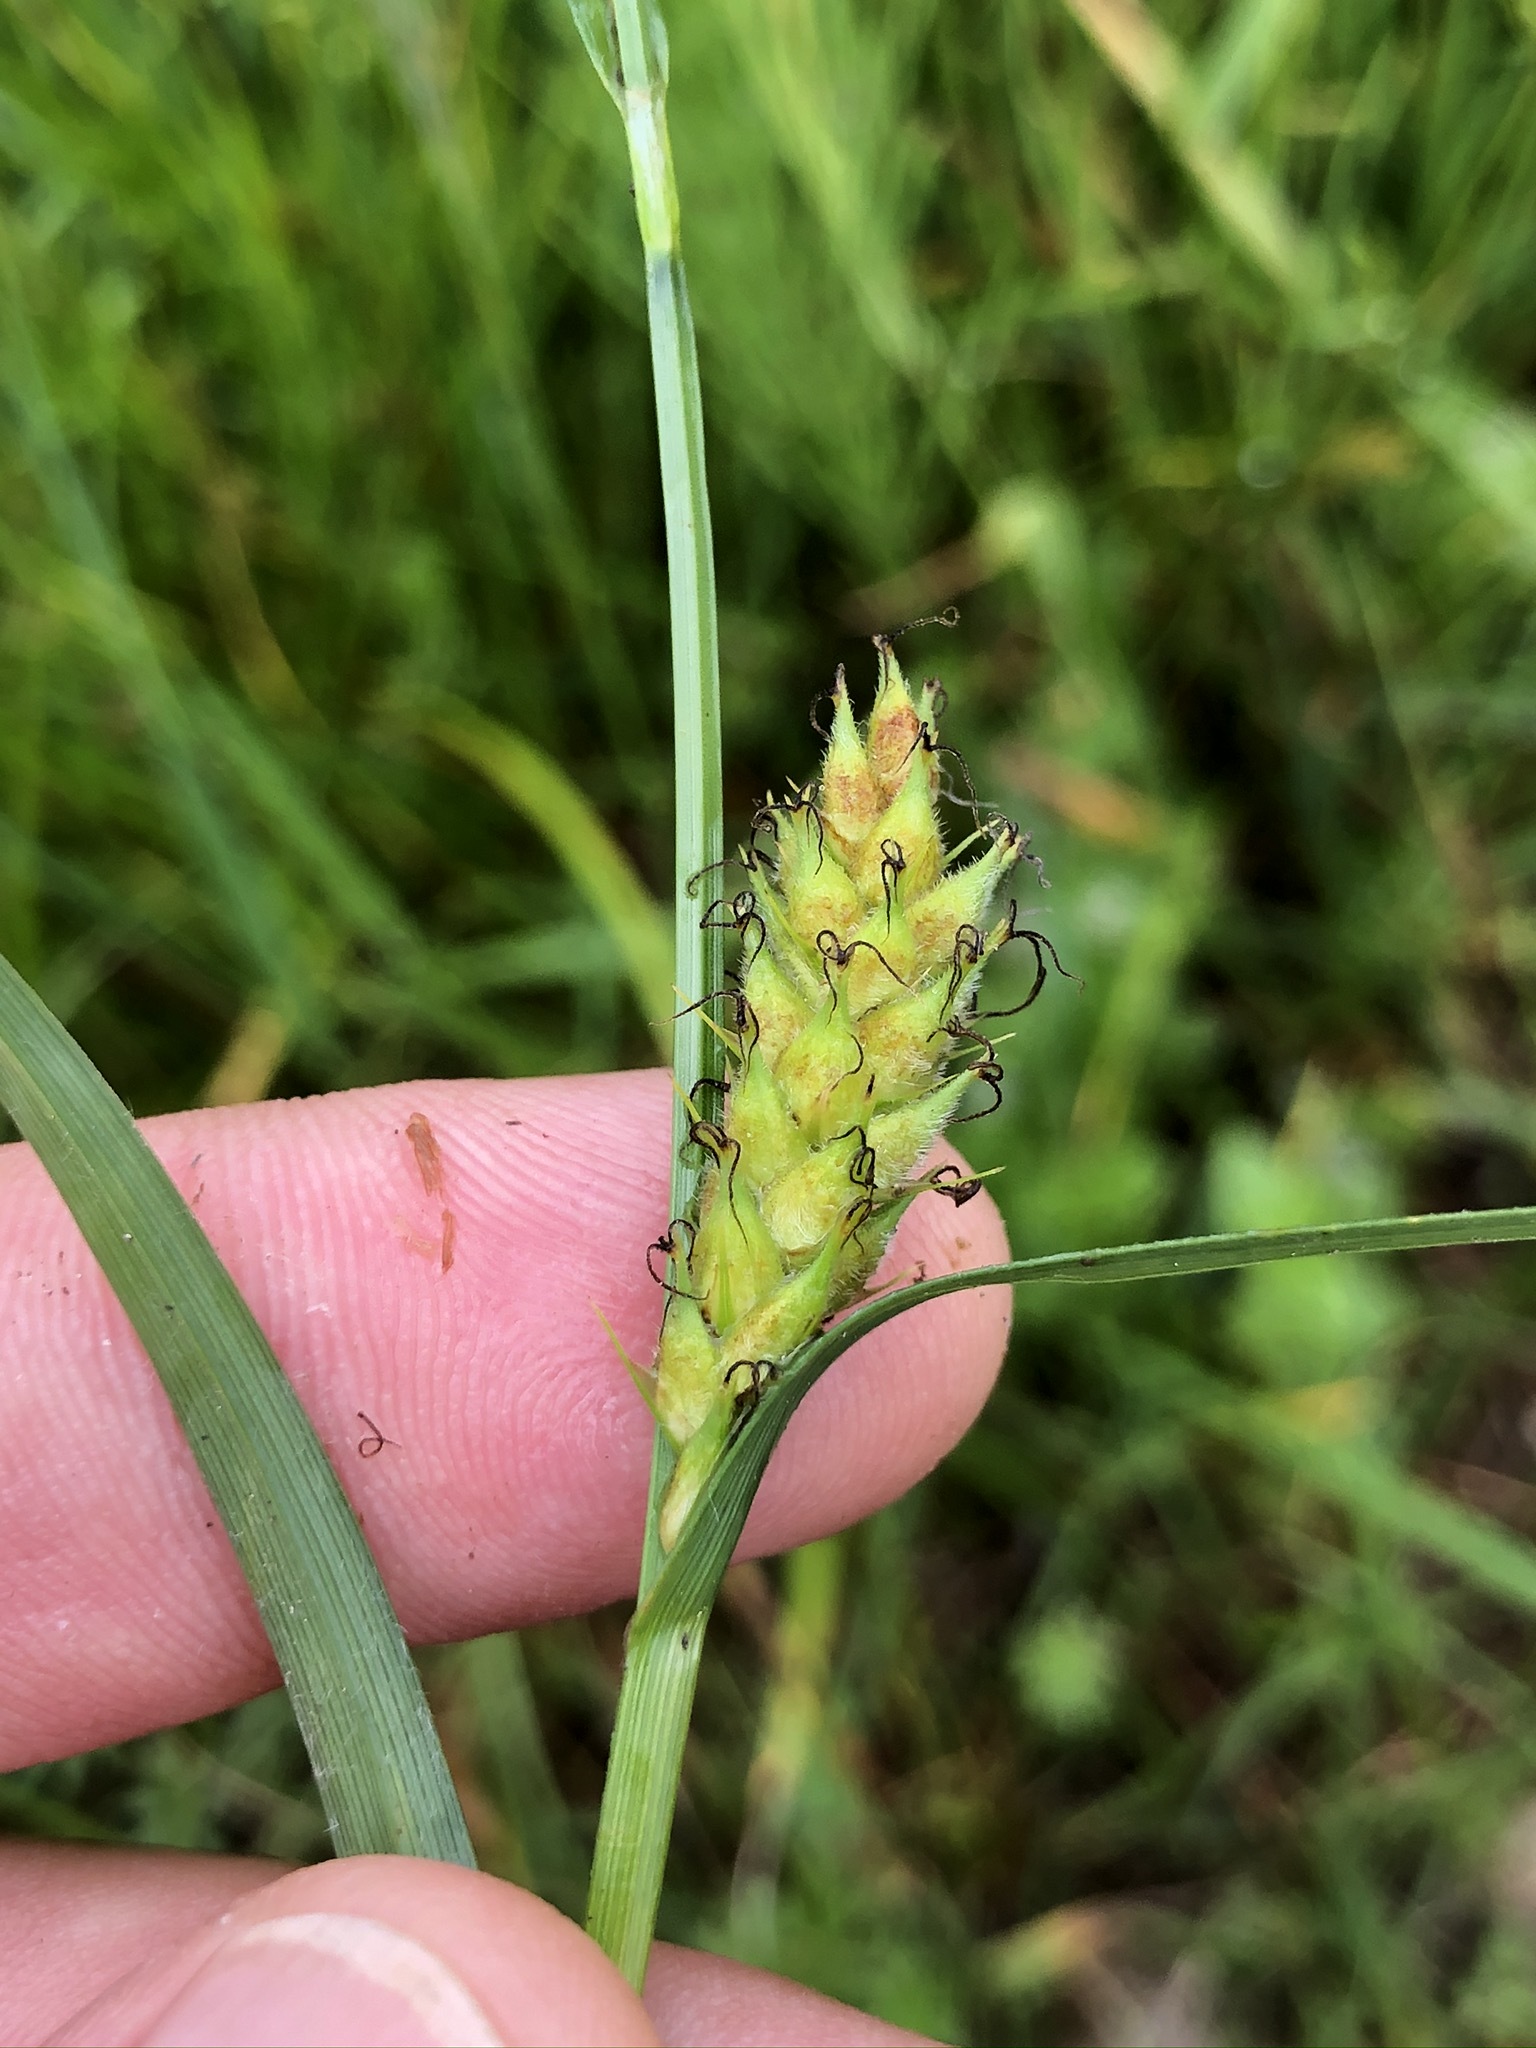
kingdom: Plantae
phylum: Tracheophyta
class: Liliopsida
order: Poales
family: Cyperaceae
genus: Carex
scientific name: Carex hirta
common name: Hairy sedge
